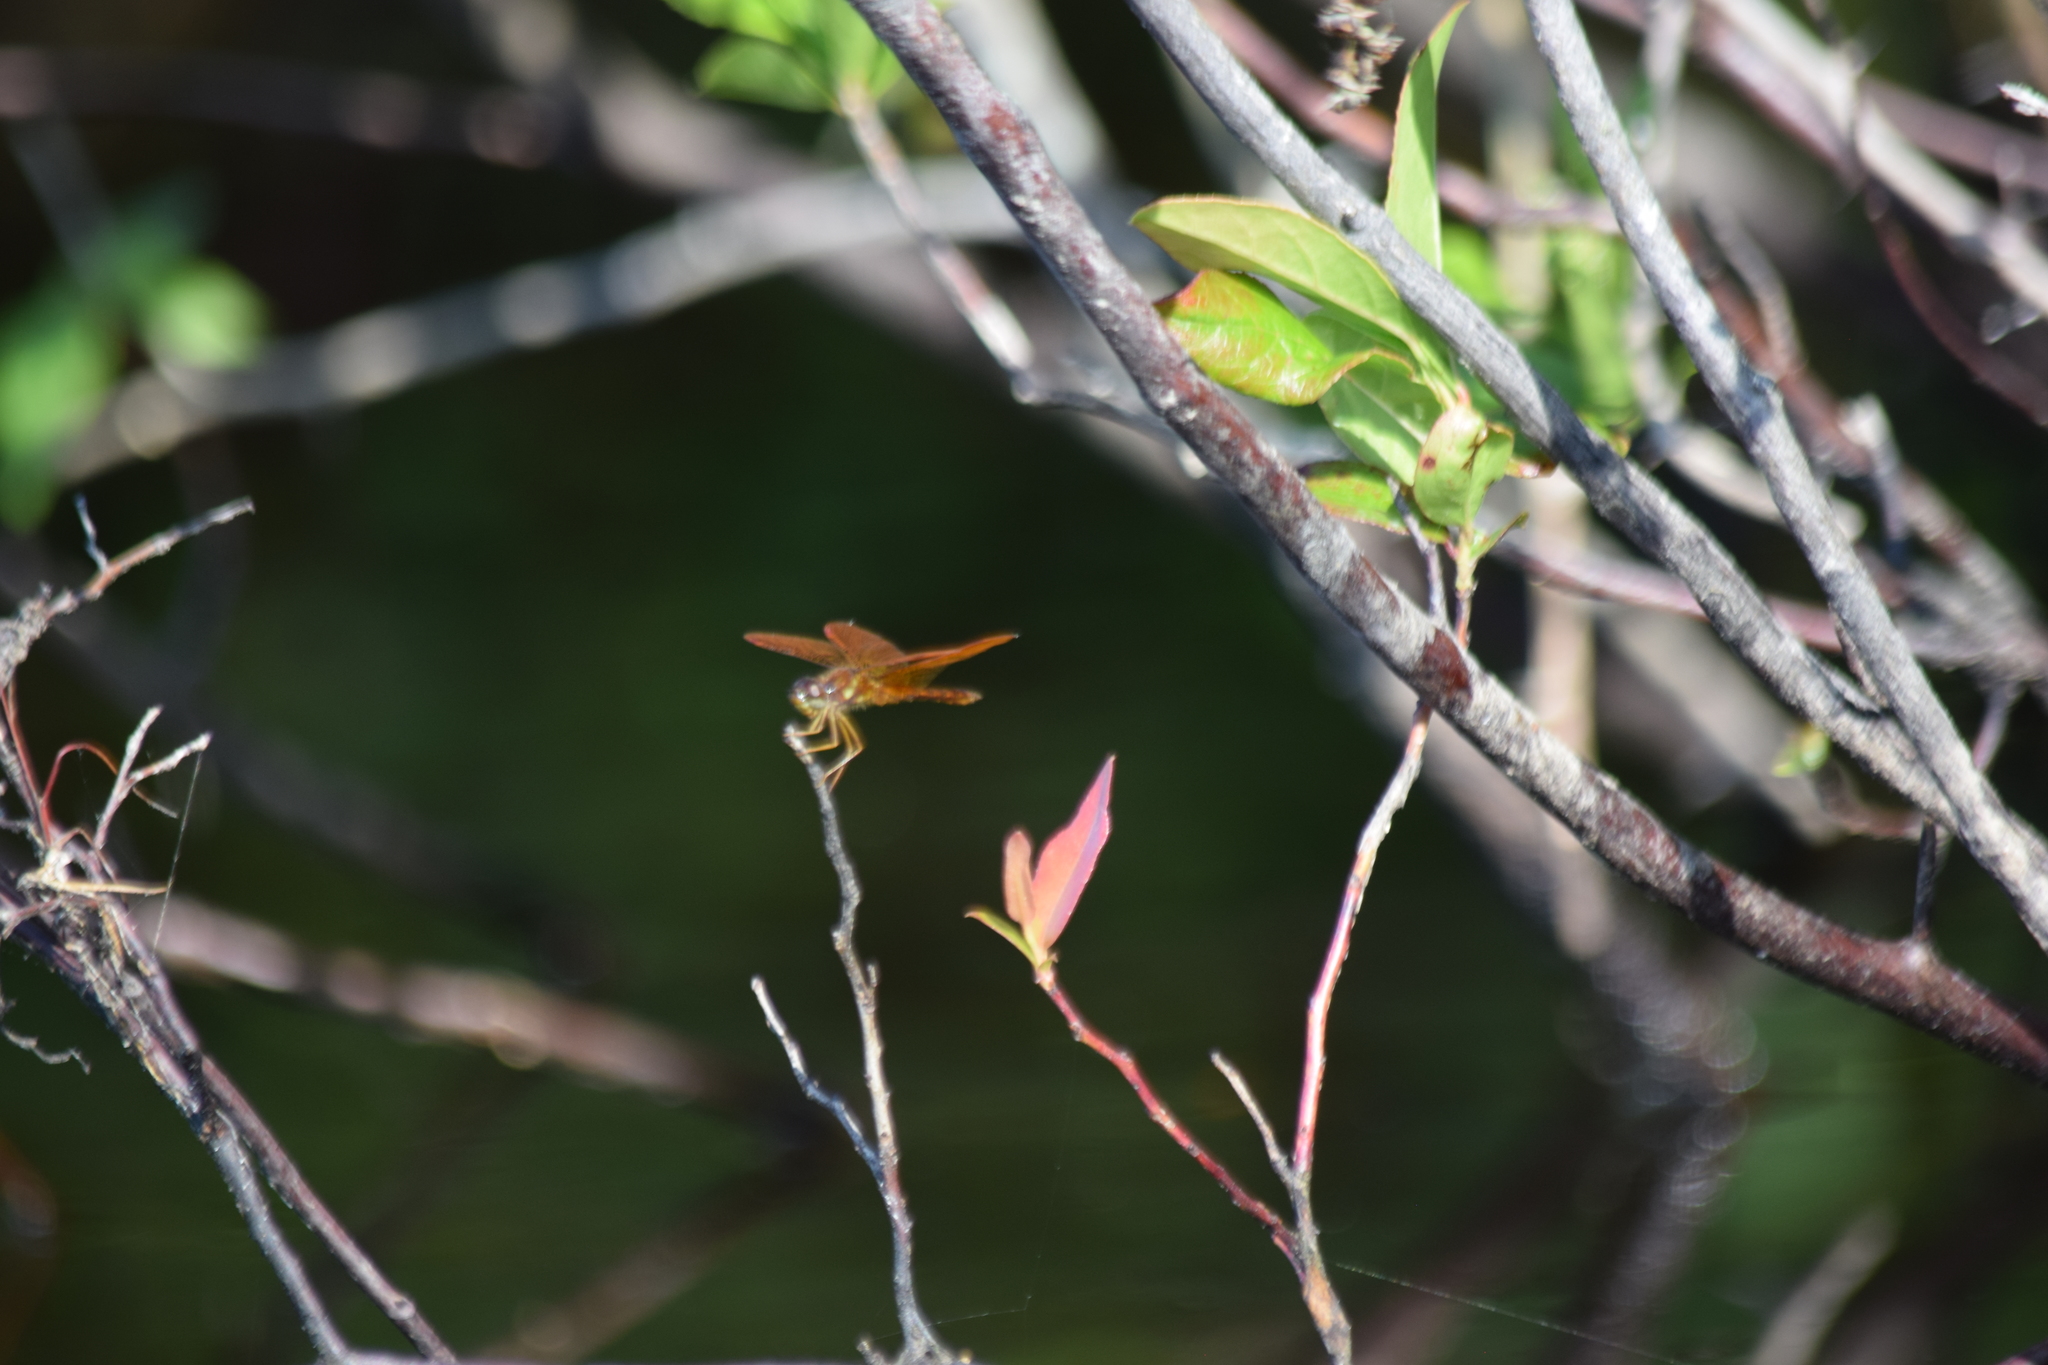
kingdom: Animalia
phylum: Arthropoda
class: Insecta
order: Odonata
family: Libellulidae
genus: Perithemis
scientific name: Perithemis tenera
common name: Eastern amberwing
